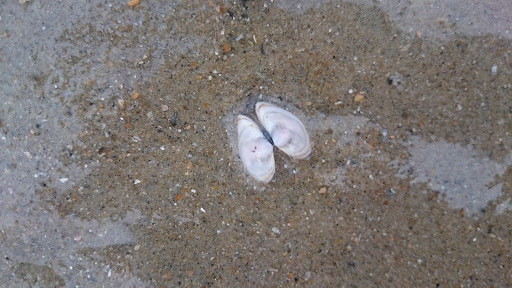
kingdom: Animalia
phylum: Mollusca
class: Bivalvia
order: Cardiida
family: Tellinidae
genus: Macoma
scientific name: Macoma balthica
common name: Baltic tellin
